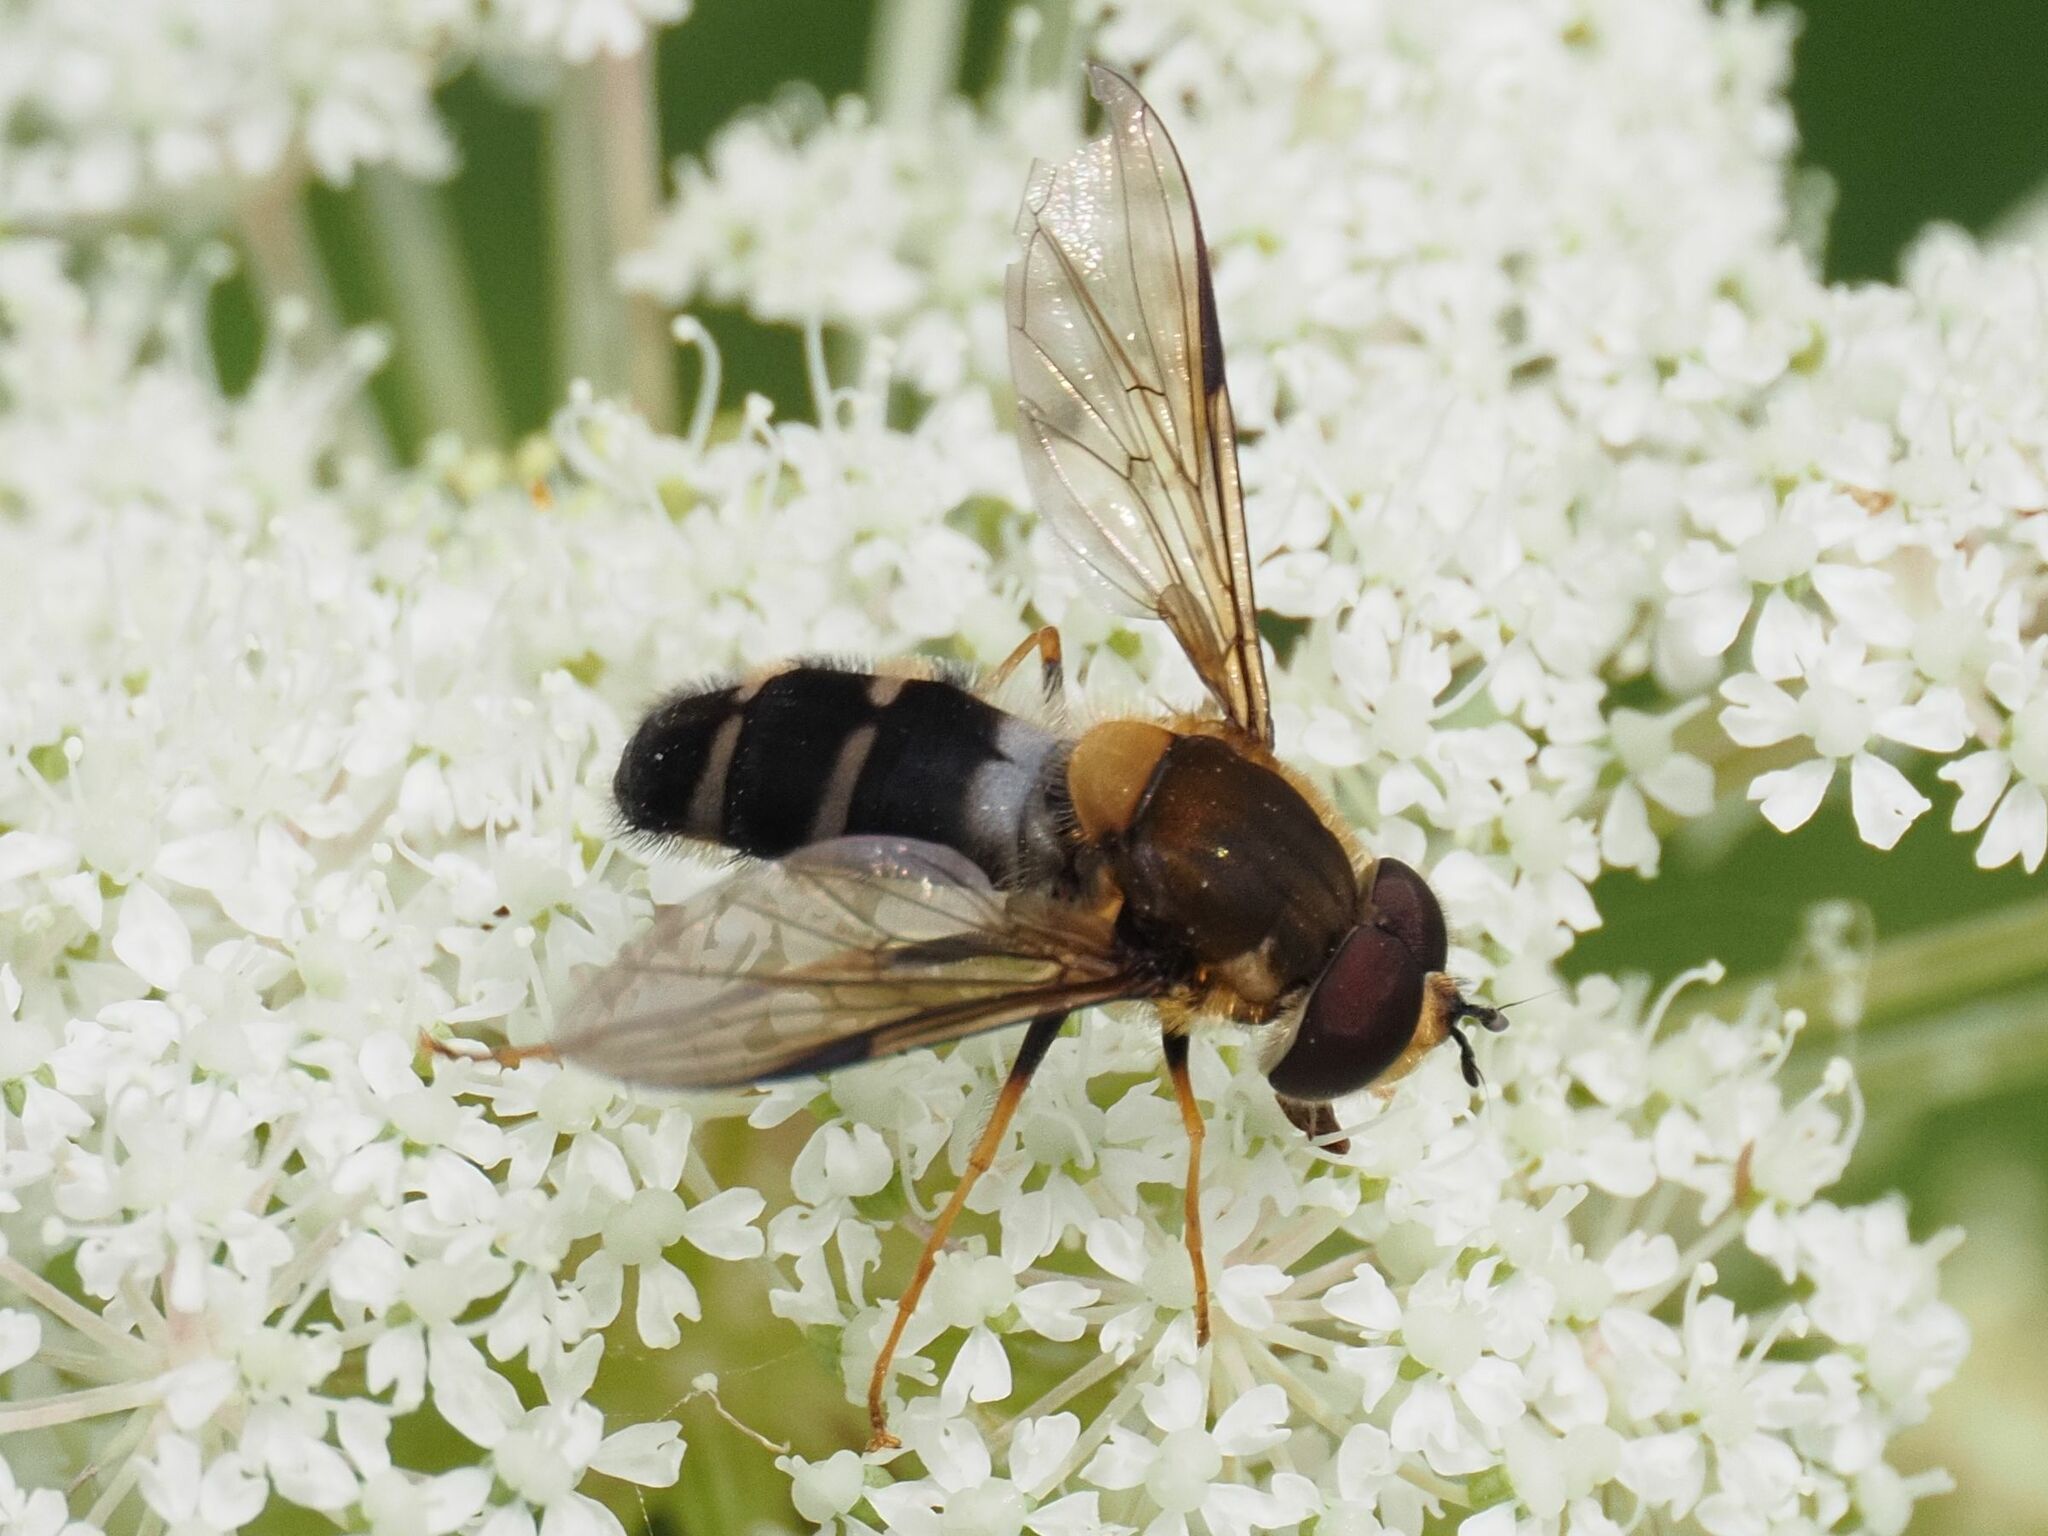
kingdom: Animalia
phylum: Arthropoda
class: Insecta
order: Diptera
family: Syrphidae
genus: Leucozona
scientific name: Leucozona glaucia
